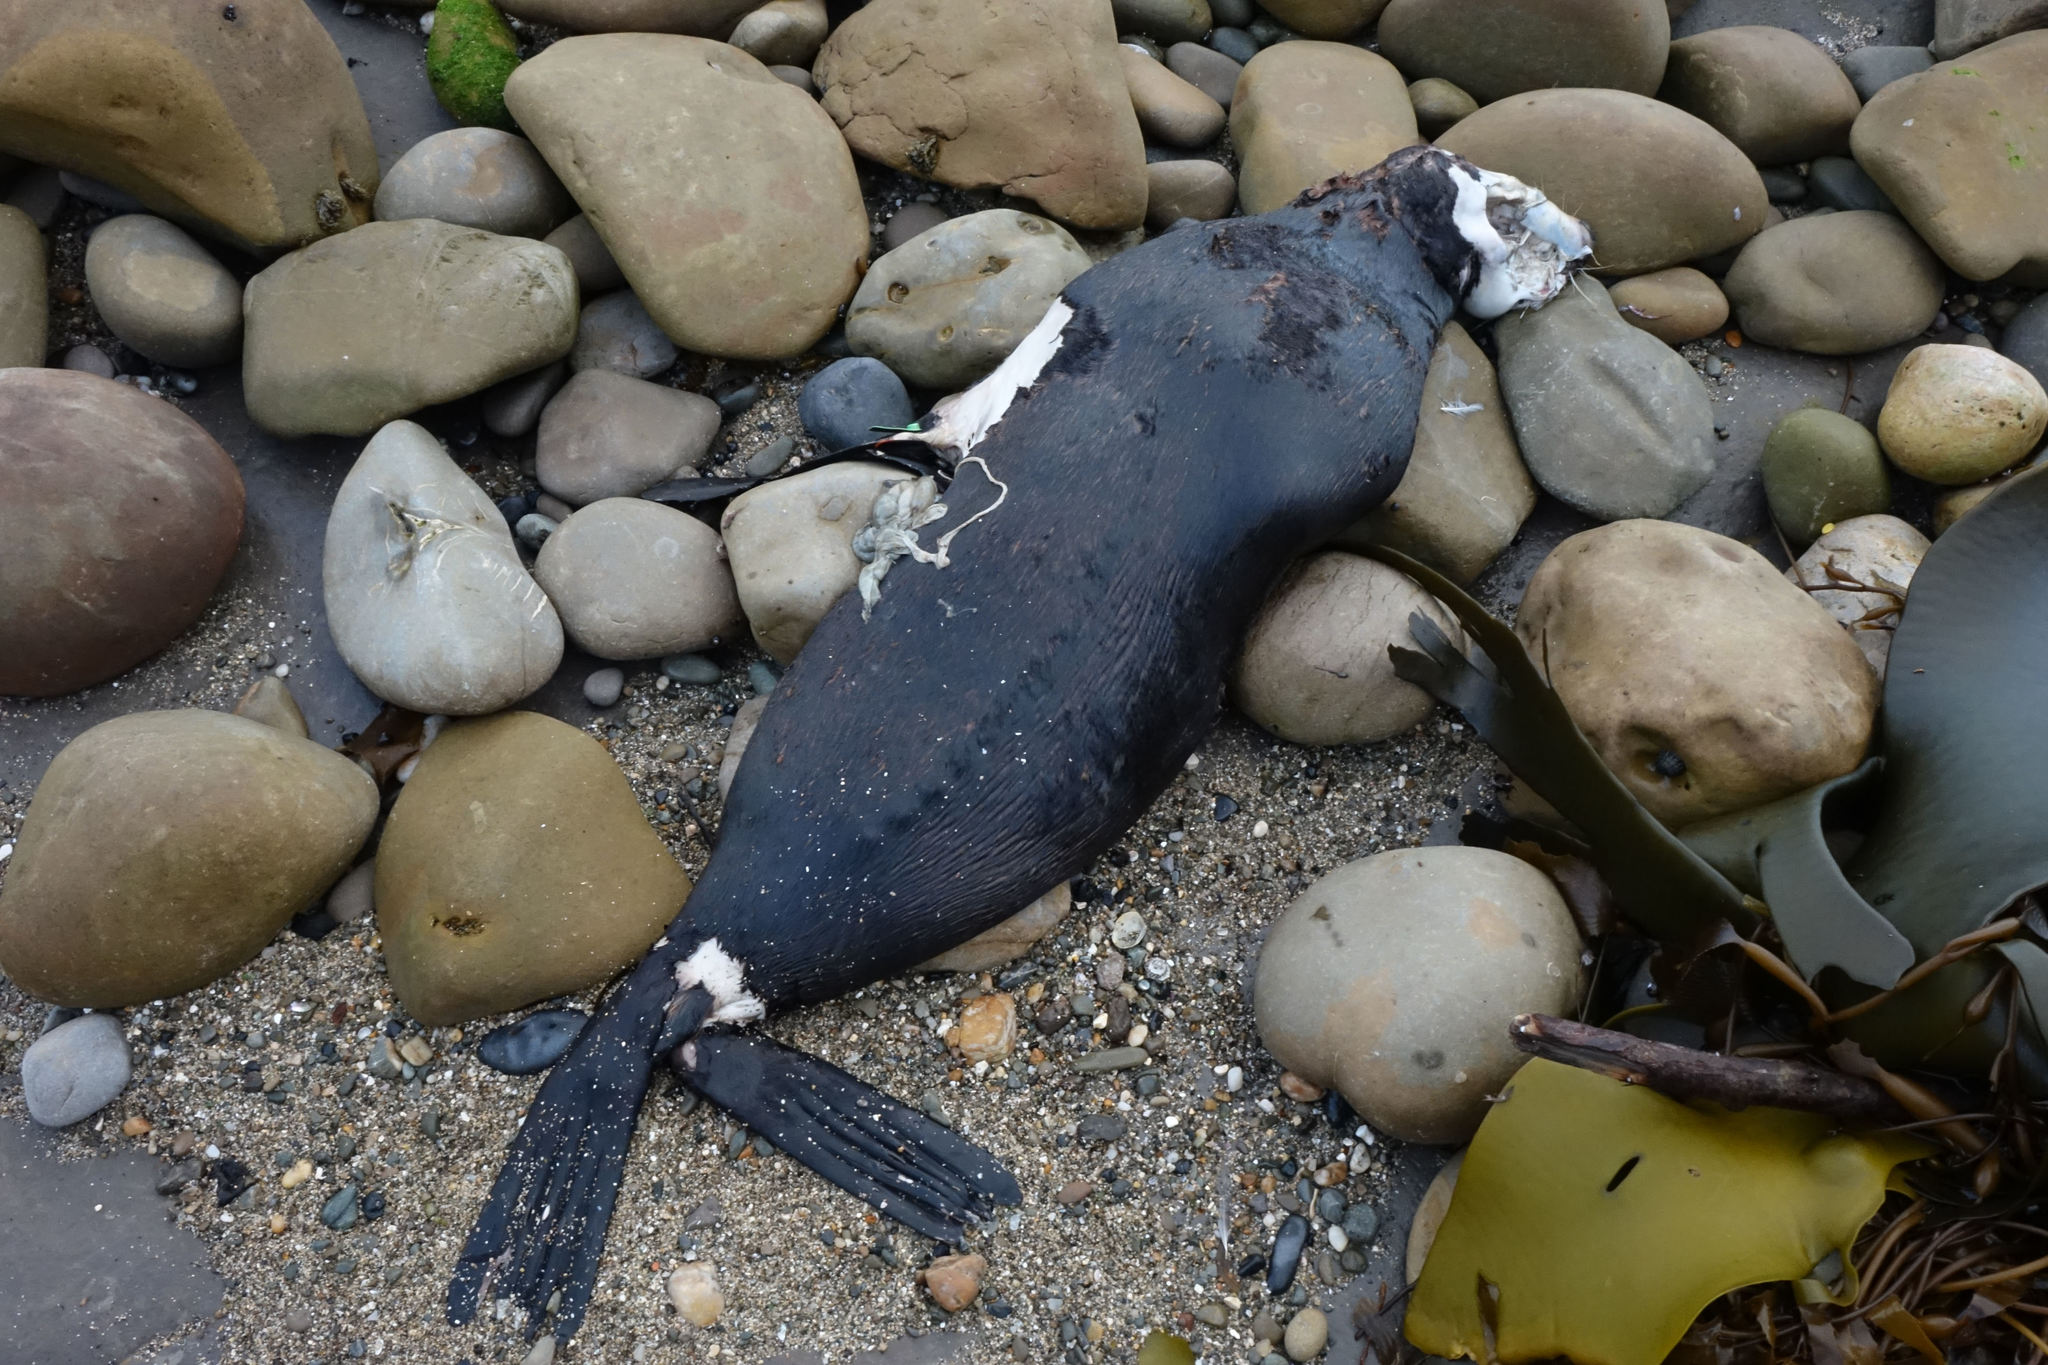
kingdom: Animalia
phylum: Chordata
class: Mammalia
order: Carnivora
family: Otariidae
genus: Arctocephalus
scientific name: Arctocephalus forsteri
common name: New zealand fur seal
